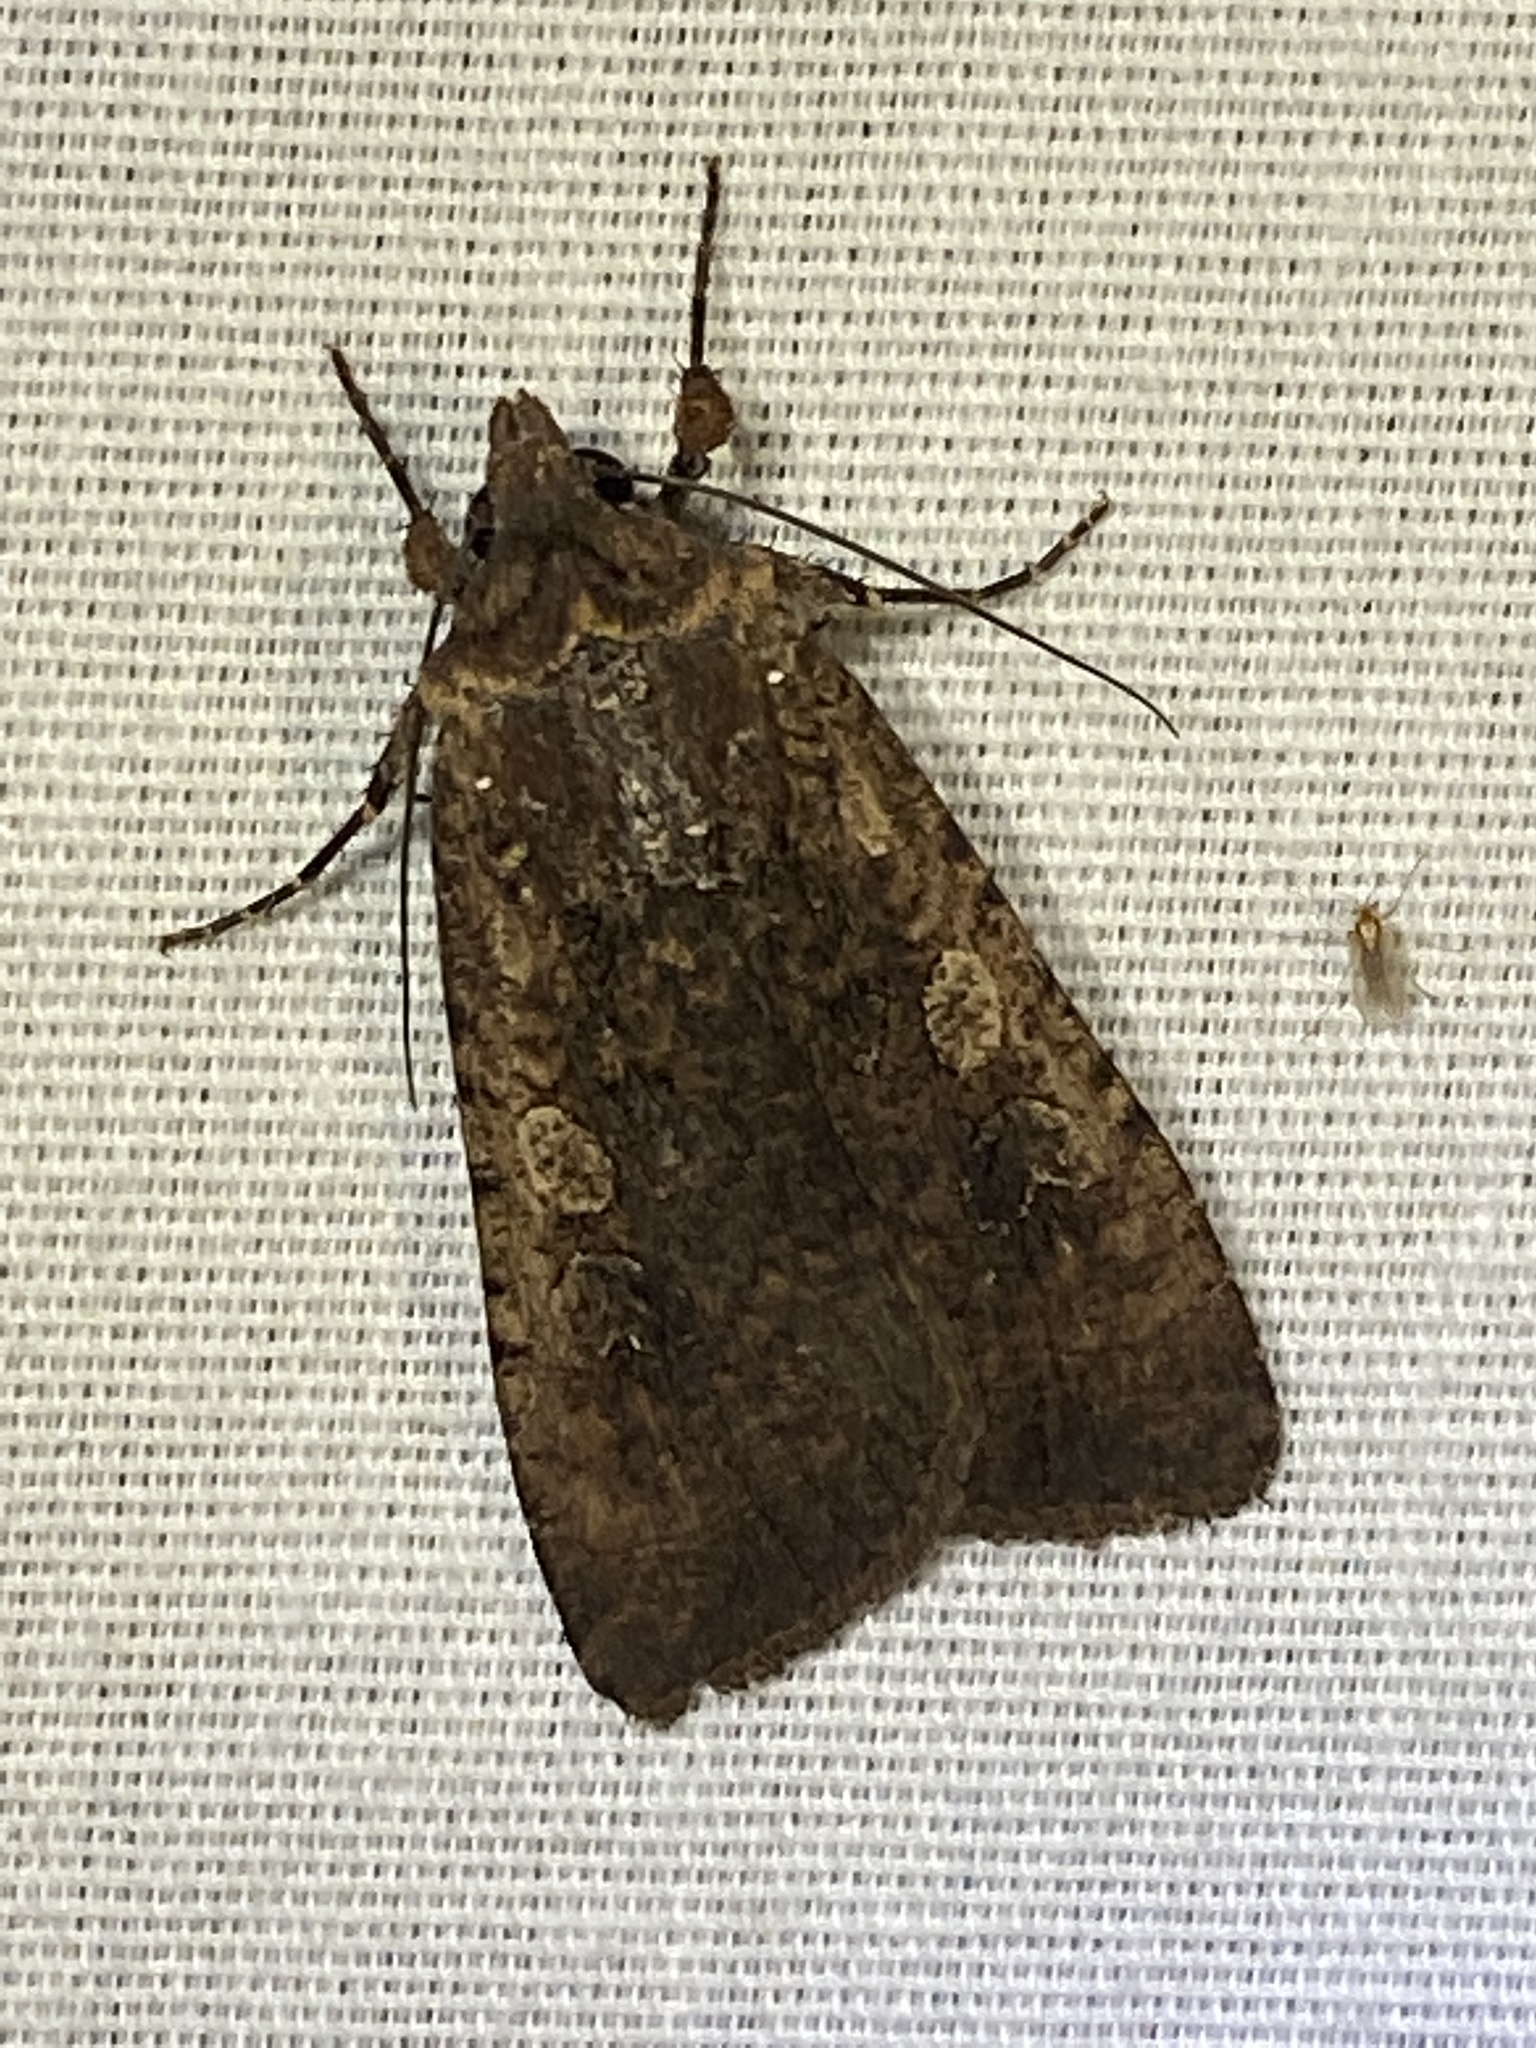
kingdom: Animalia
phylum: Arthropoda
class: Insecta
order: Lepidoptera
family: Noctuidae
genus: Peridroma
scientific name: Peridroma saucia
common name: Pearly underwing
